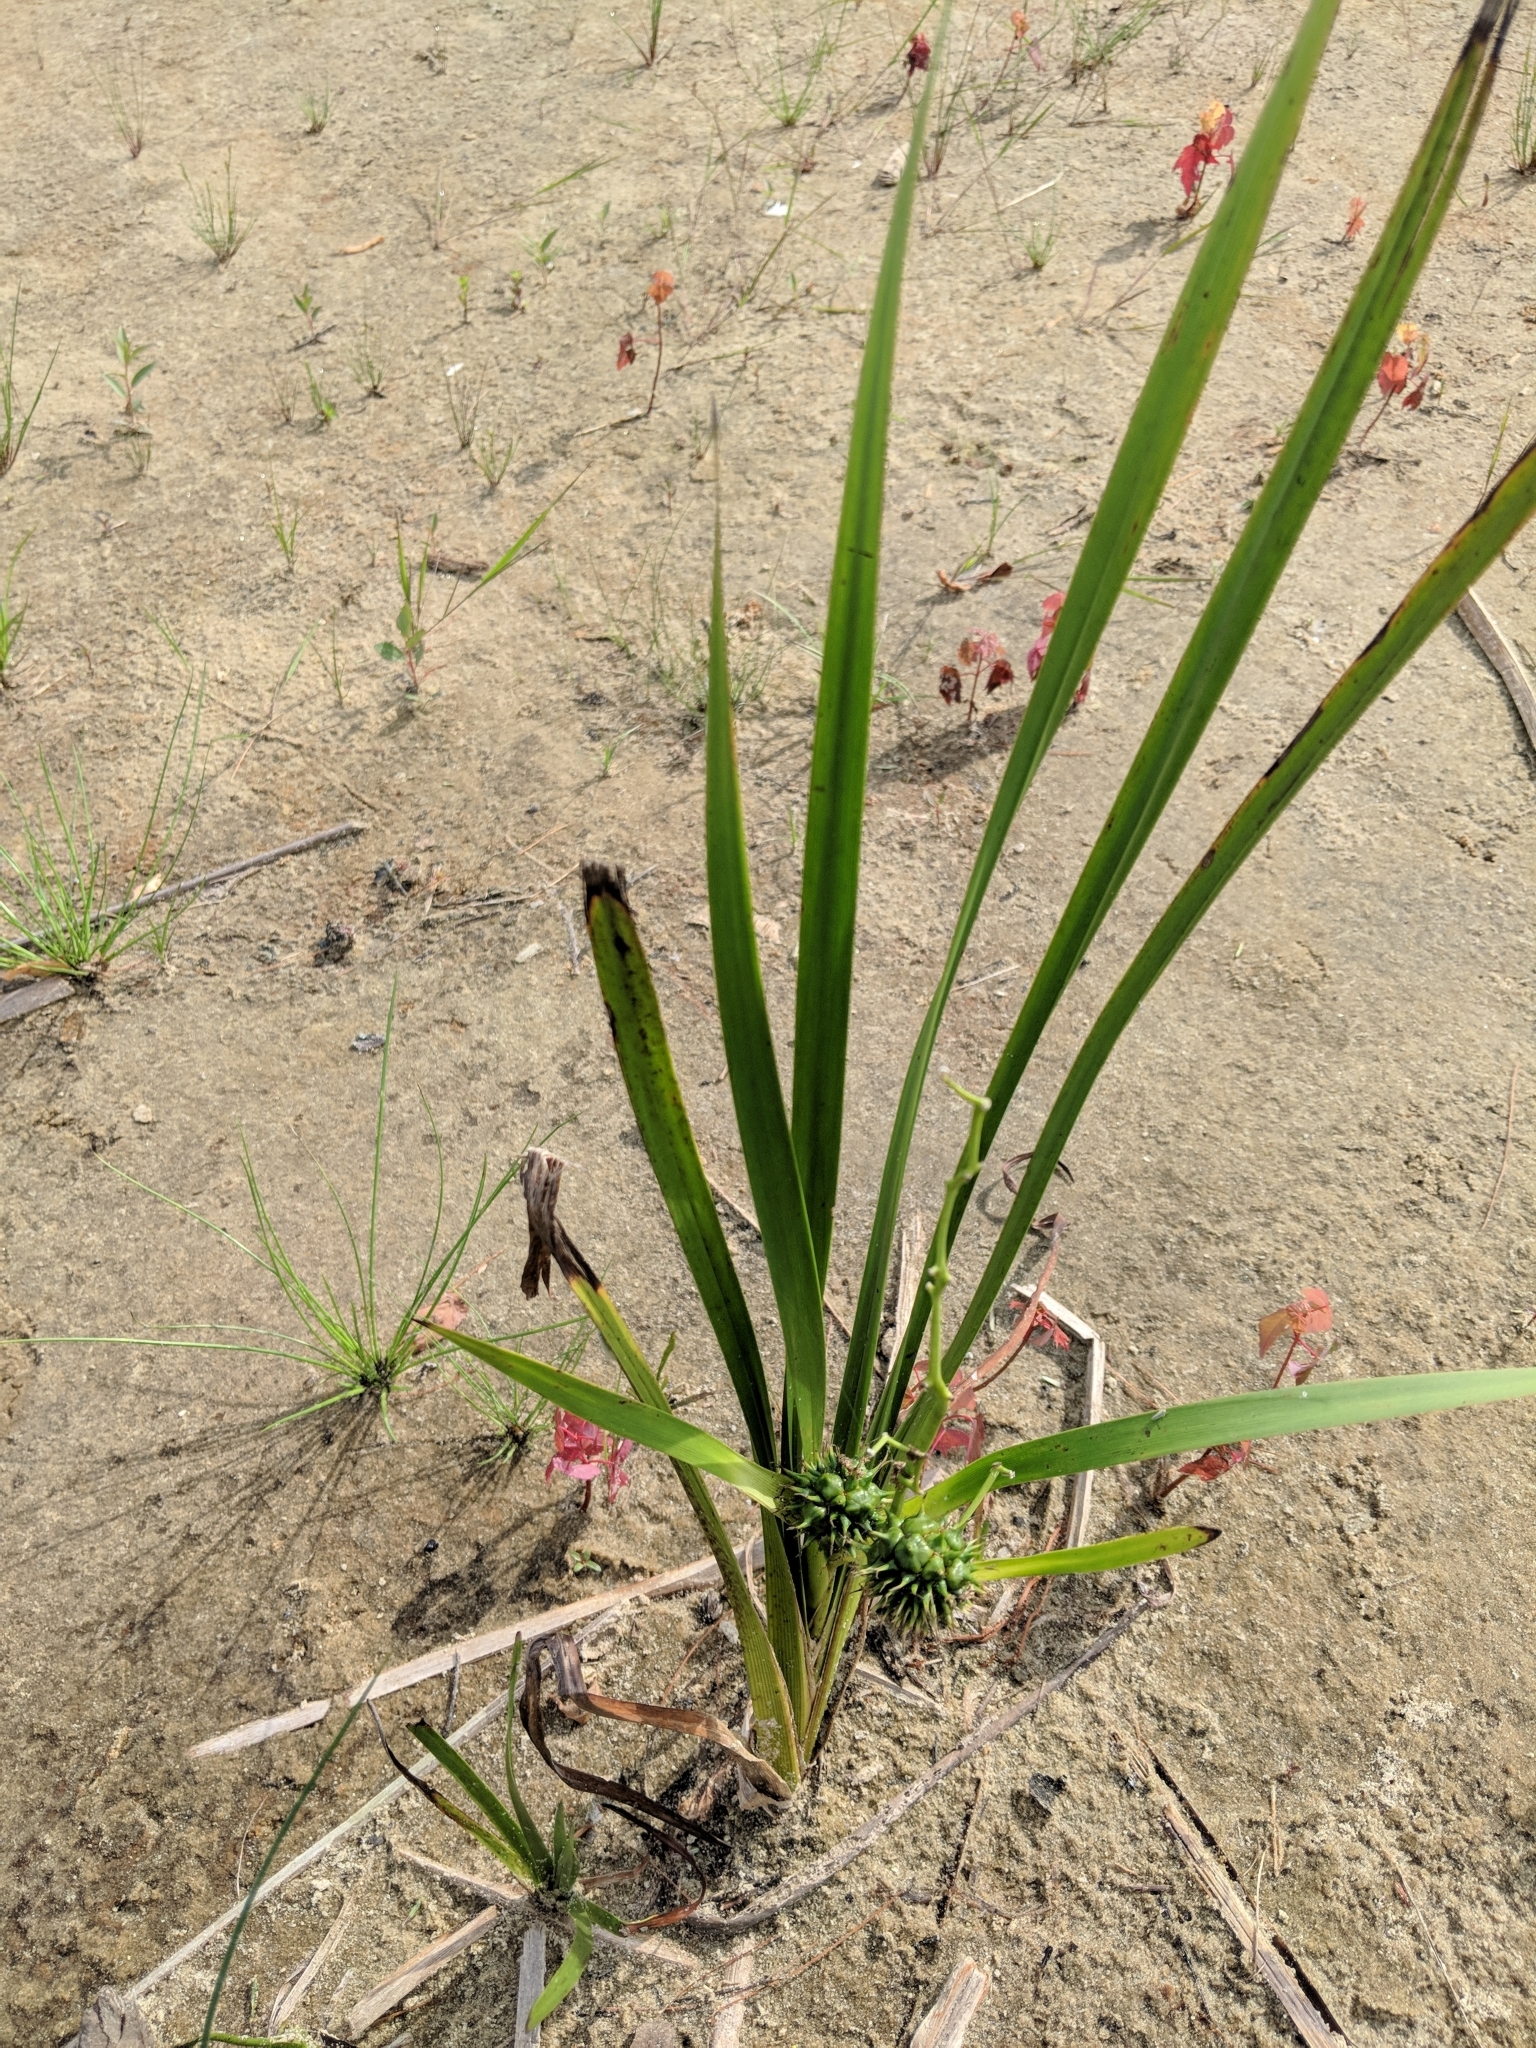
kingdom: Plantae
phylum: Tracheophyta
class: Liliopsida
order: Poales
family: Typhaceae
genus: Sparganium
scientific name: Sparganium eurycarpum
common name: Broad-fruited burreed
